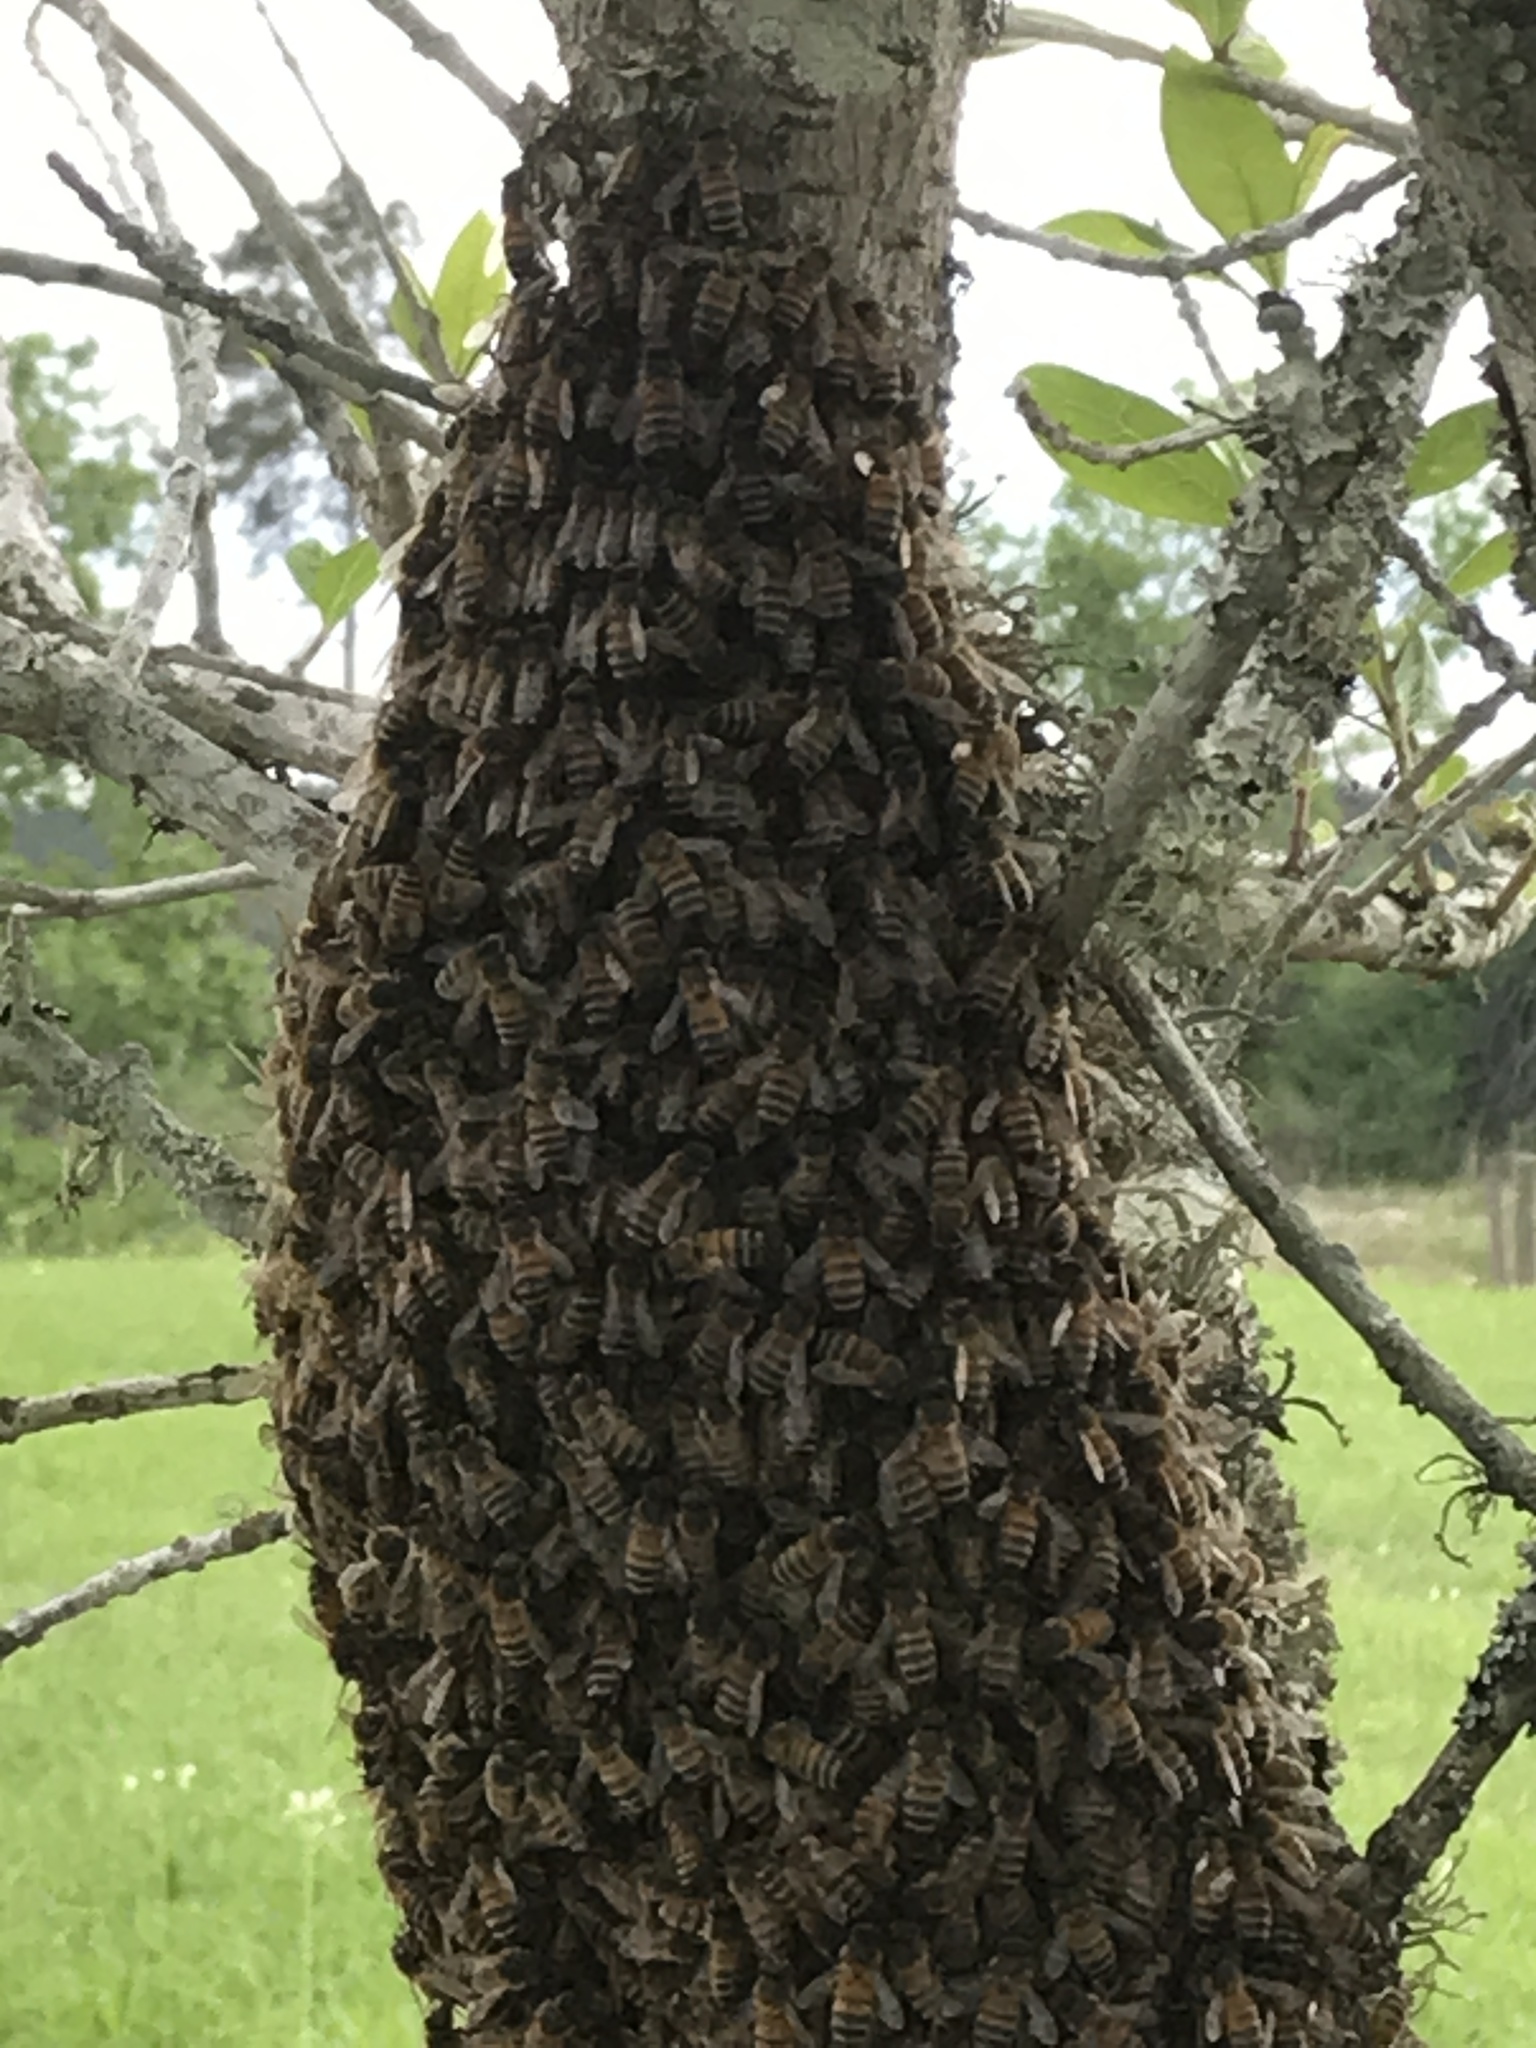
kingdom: Animalia
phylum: Arthropoda
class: Insecta
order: Hymenoptera
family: Apidae
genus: Apis
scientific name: Apis mellifera
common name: Honey bee
